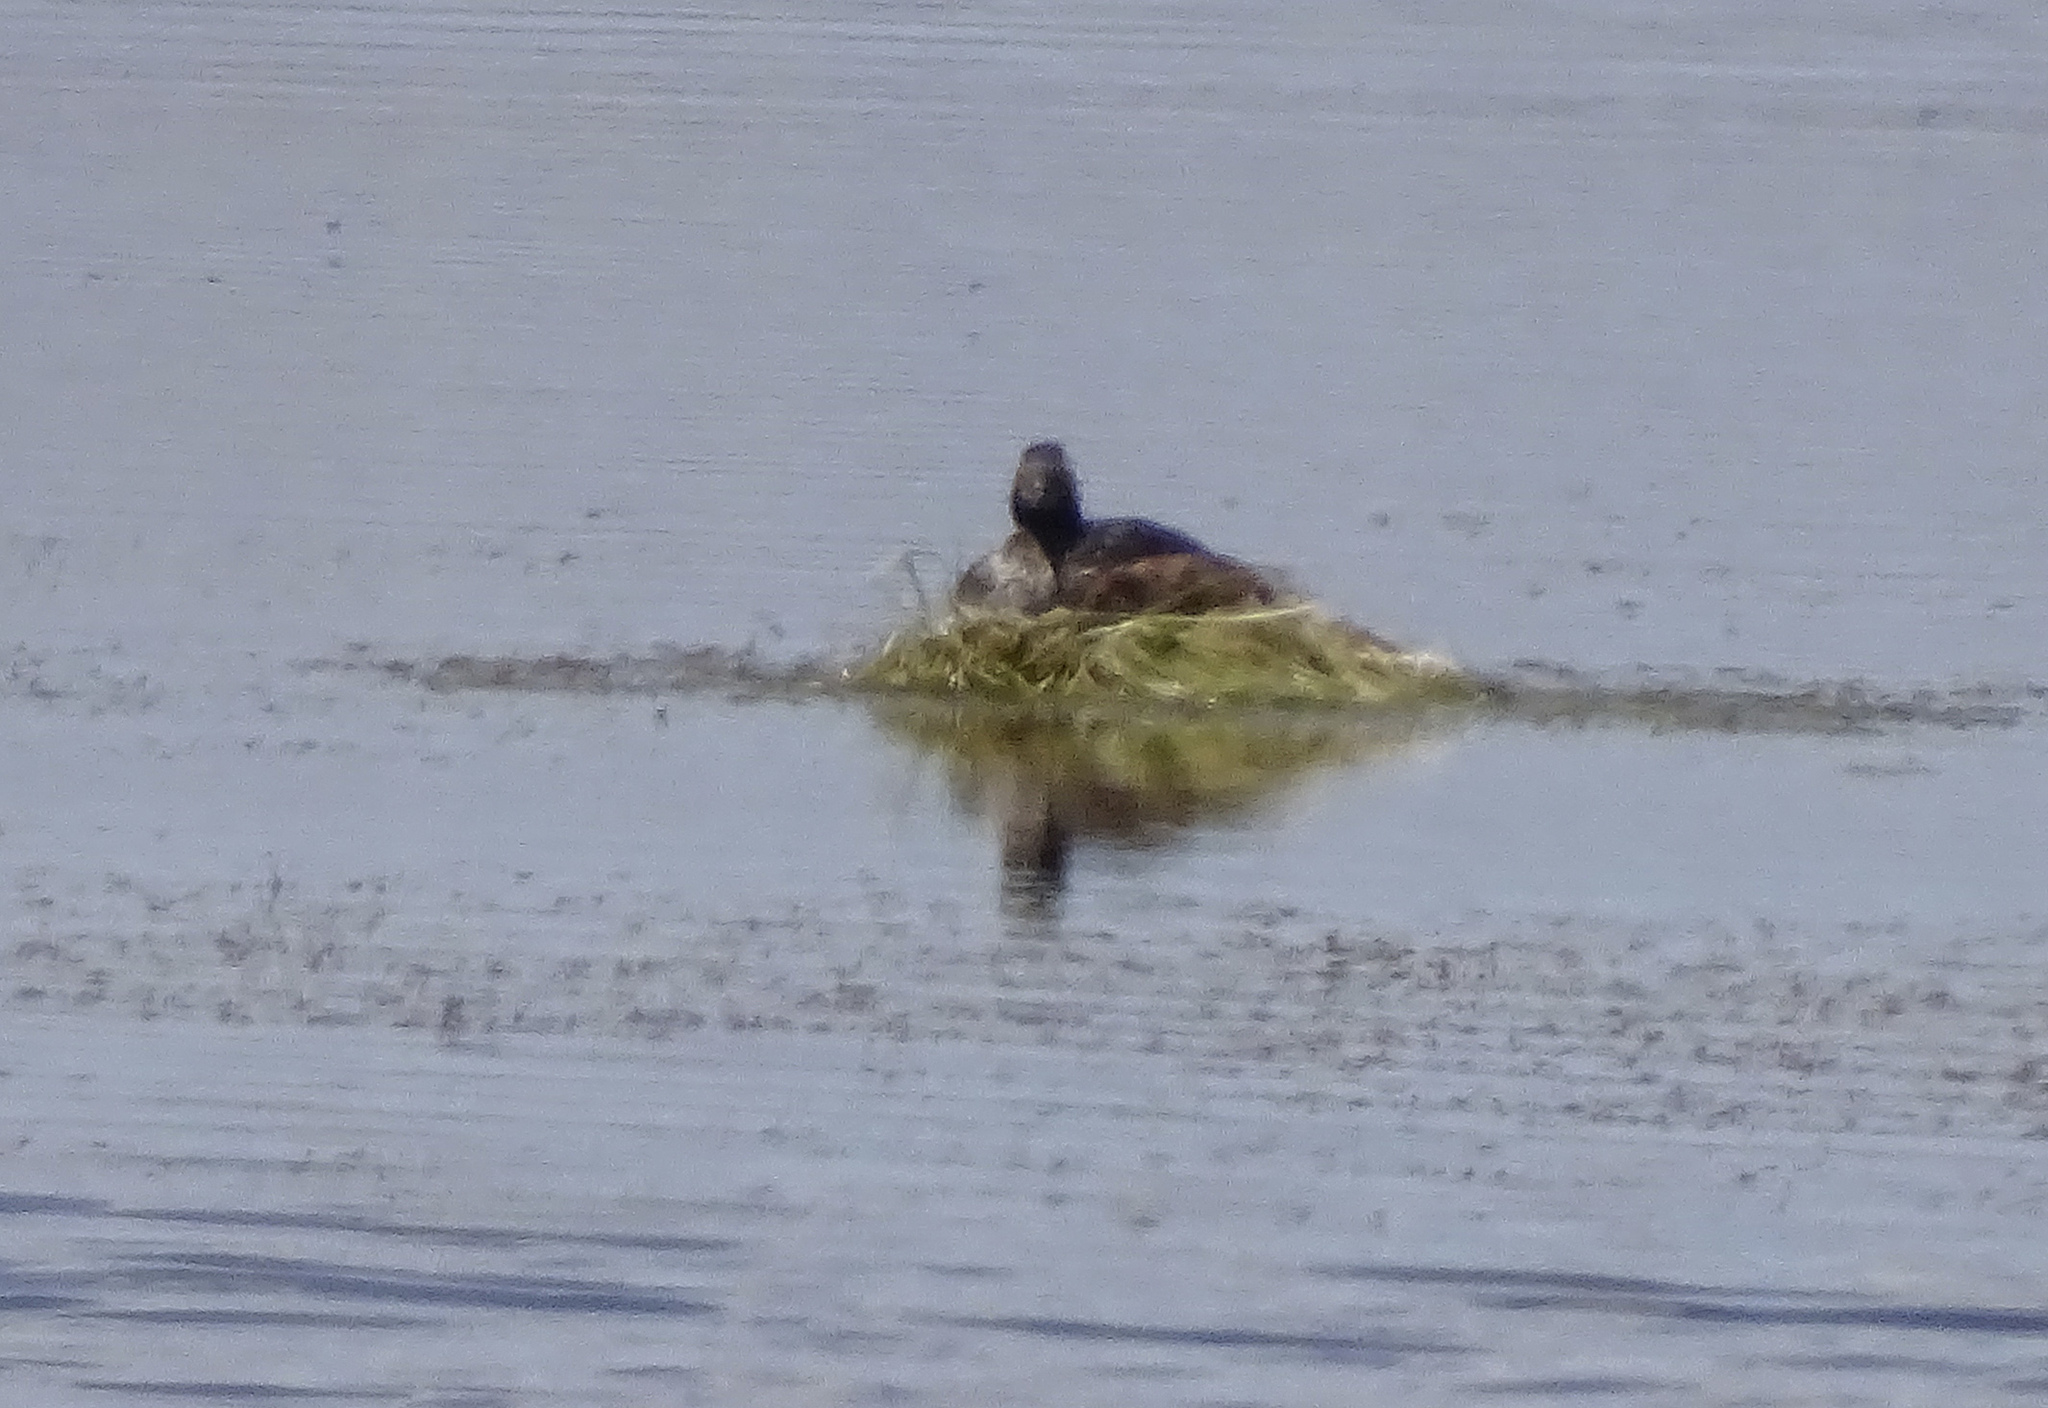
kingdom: Animalia
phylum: Chordata
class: Aves
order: Podicipediformes
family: Podicipedidae
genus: Podiceps
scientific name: Podiceps nigricollis
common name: Black-necked grebe
